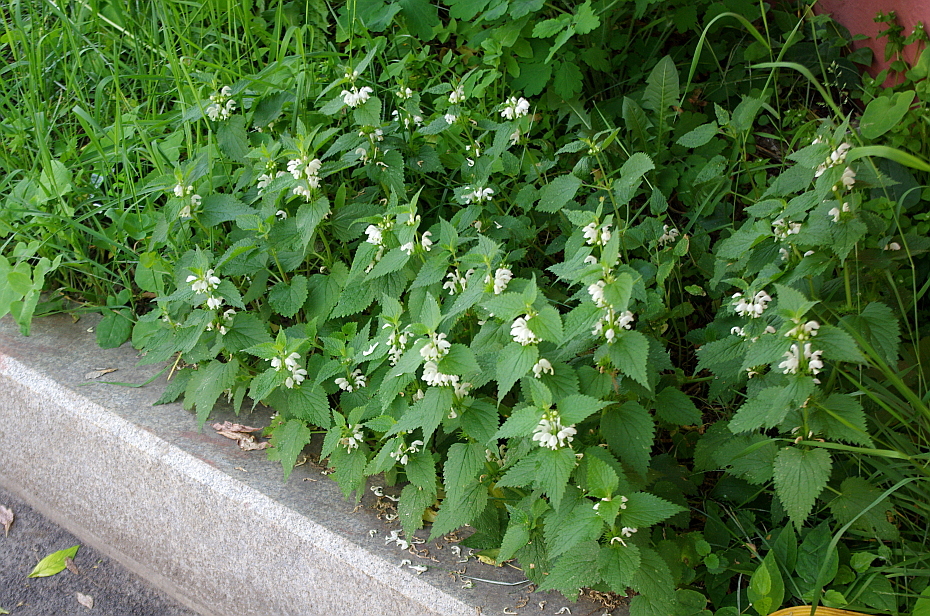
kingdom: Plantae
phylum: Tracheophyta
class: Magnoliopsida
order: Lamiales
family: Lamiaceae
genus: Lamium
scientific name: Lamium album
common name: White dead-nettle
